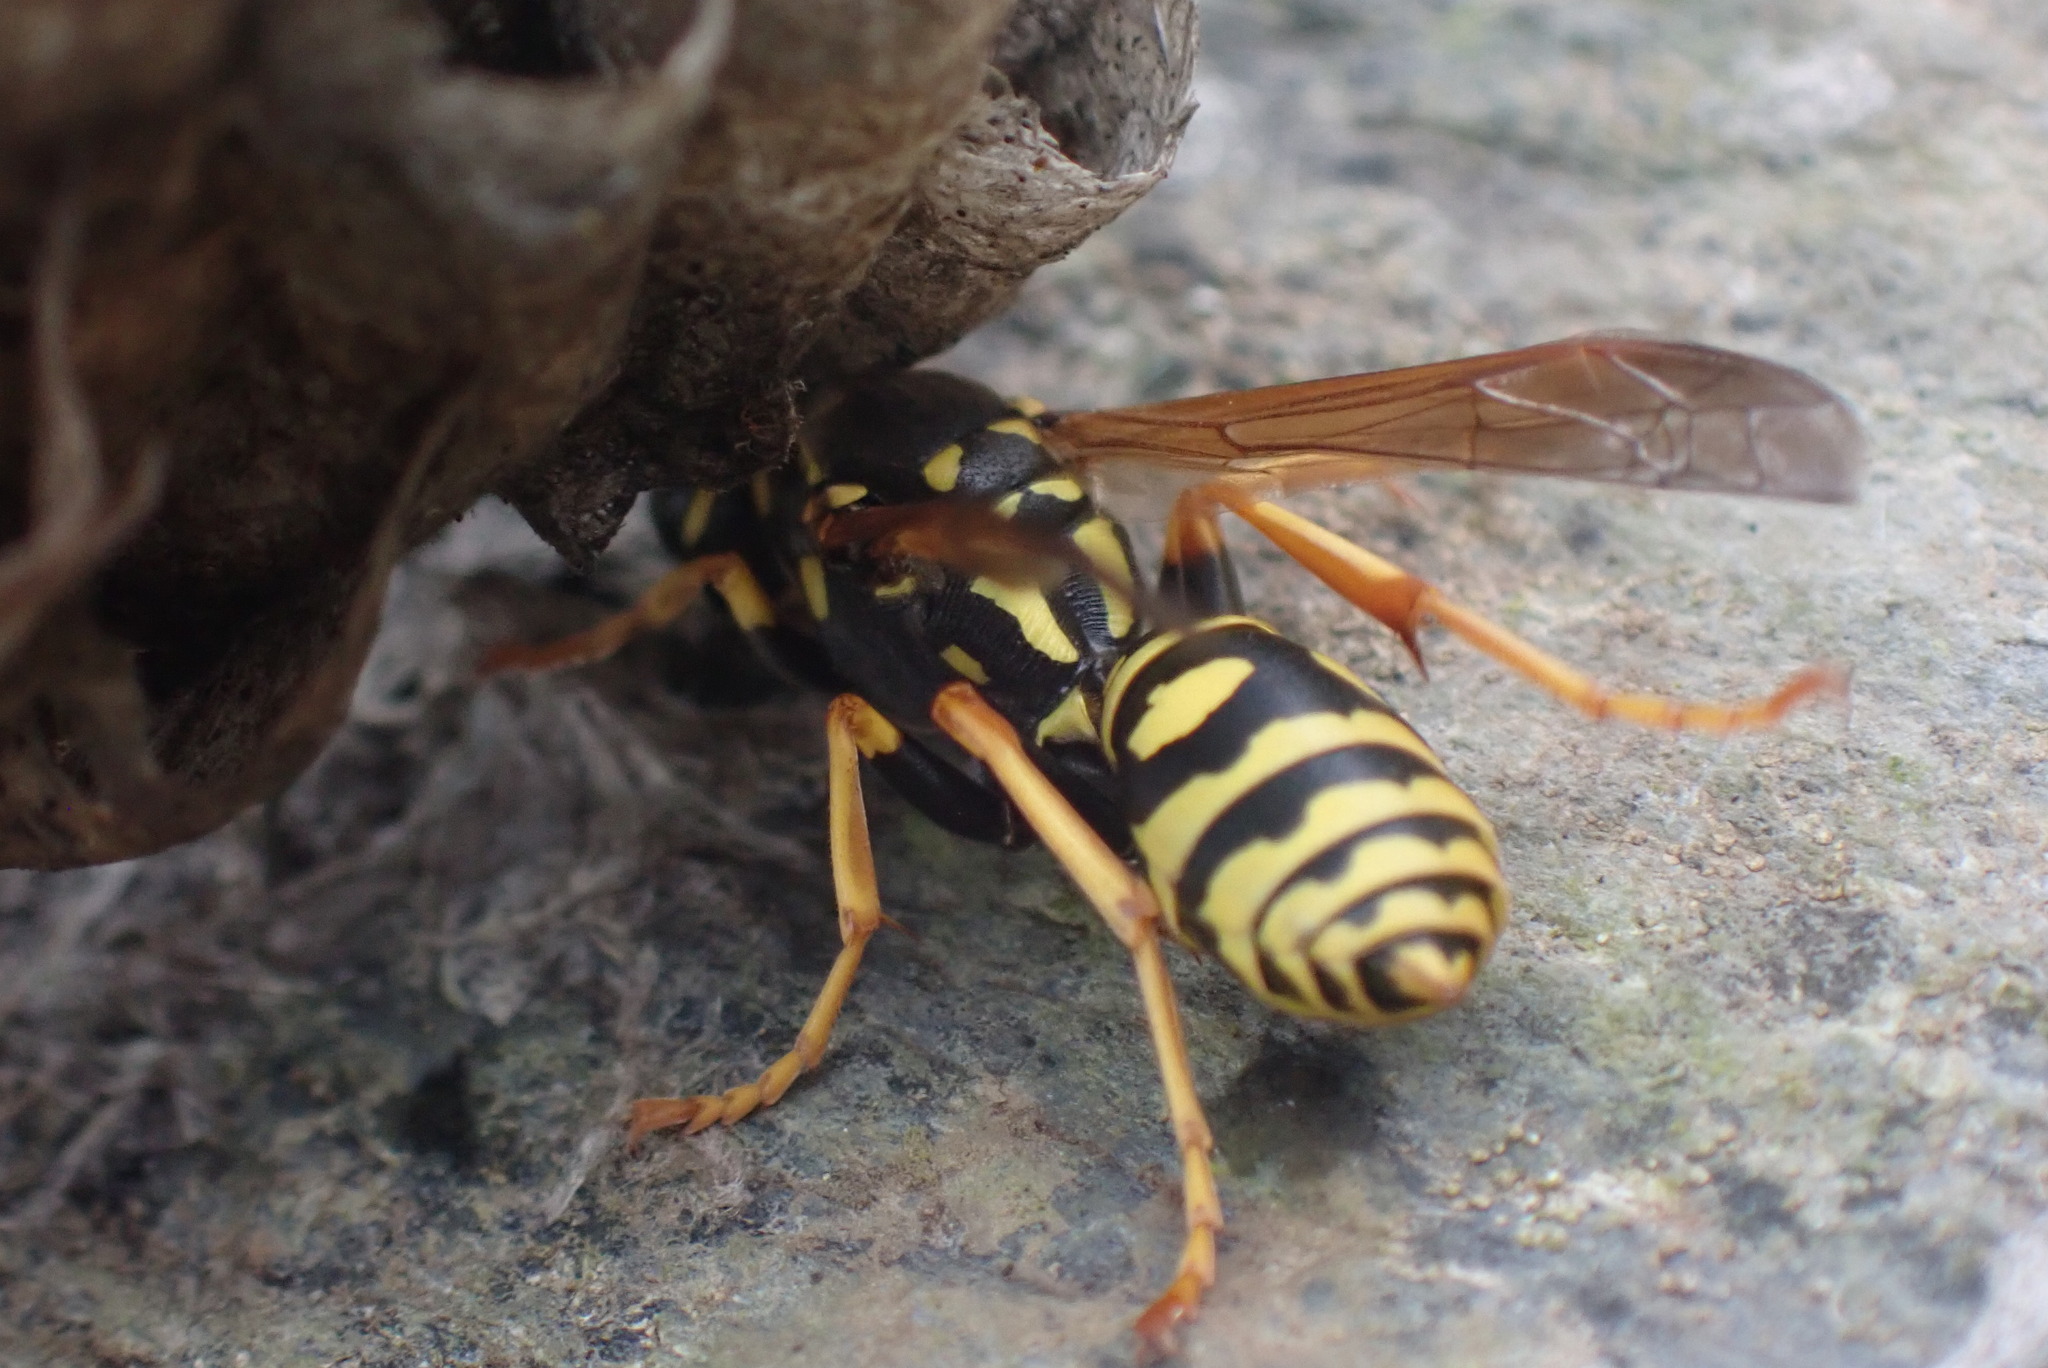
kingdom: Animalia
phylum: Arthropoda
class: Insecta
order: Hymenoptera
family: Eumenidae
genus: Polistes
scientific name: Polistes dominula
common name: Paper wasp
